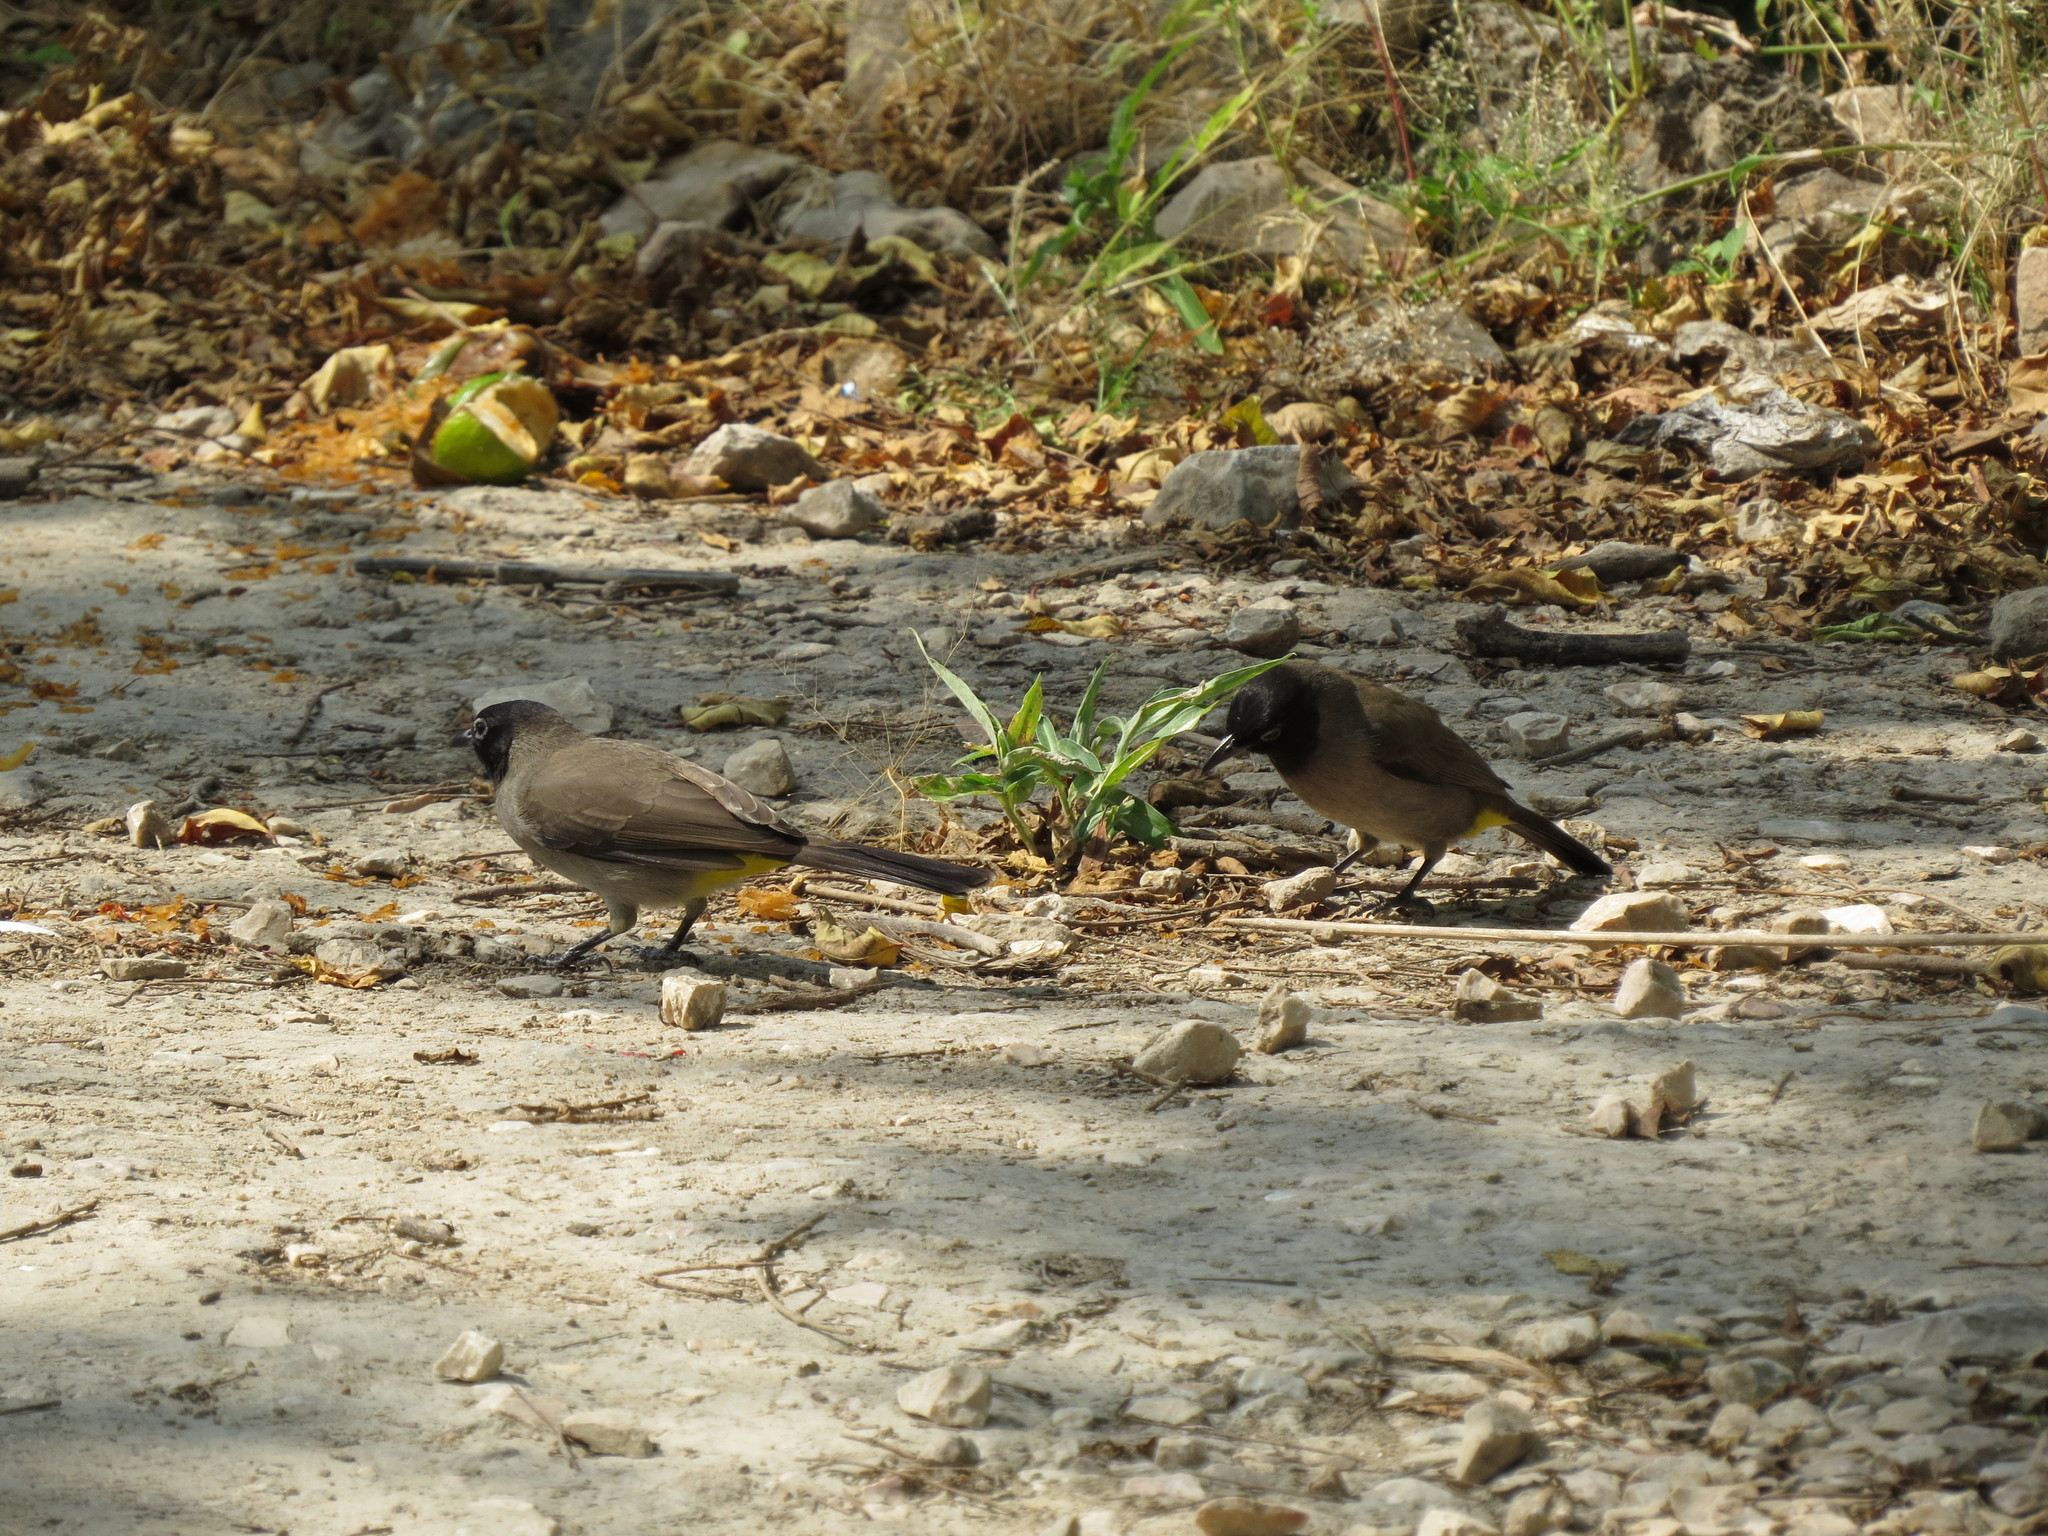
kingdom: Animalia
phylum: Chordata
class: Aves
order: Passeriformes
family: Pycnonotidae
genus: Pycnonotus
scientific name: Pycnonotus xanthopygos
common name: White-spectacled bulbul
